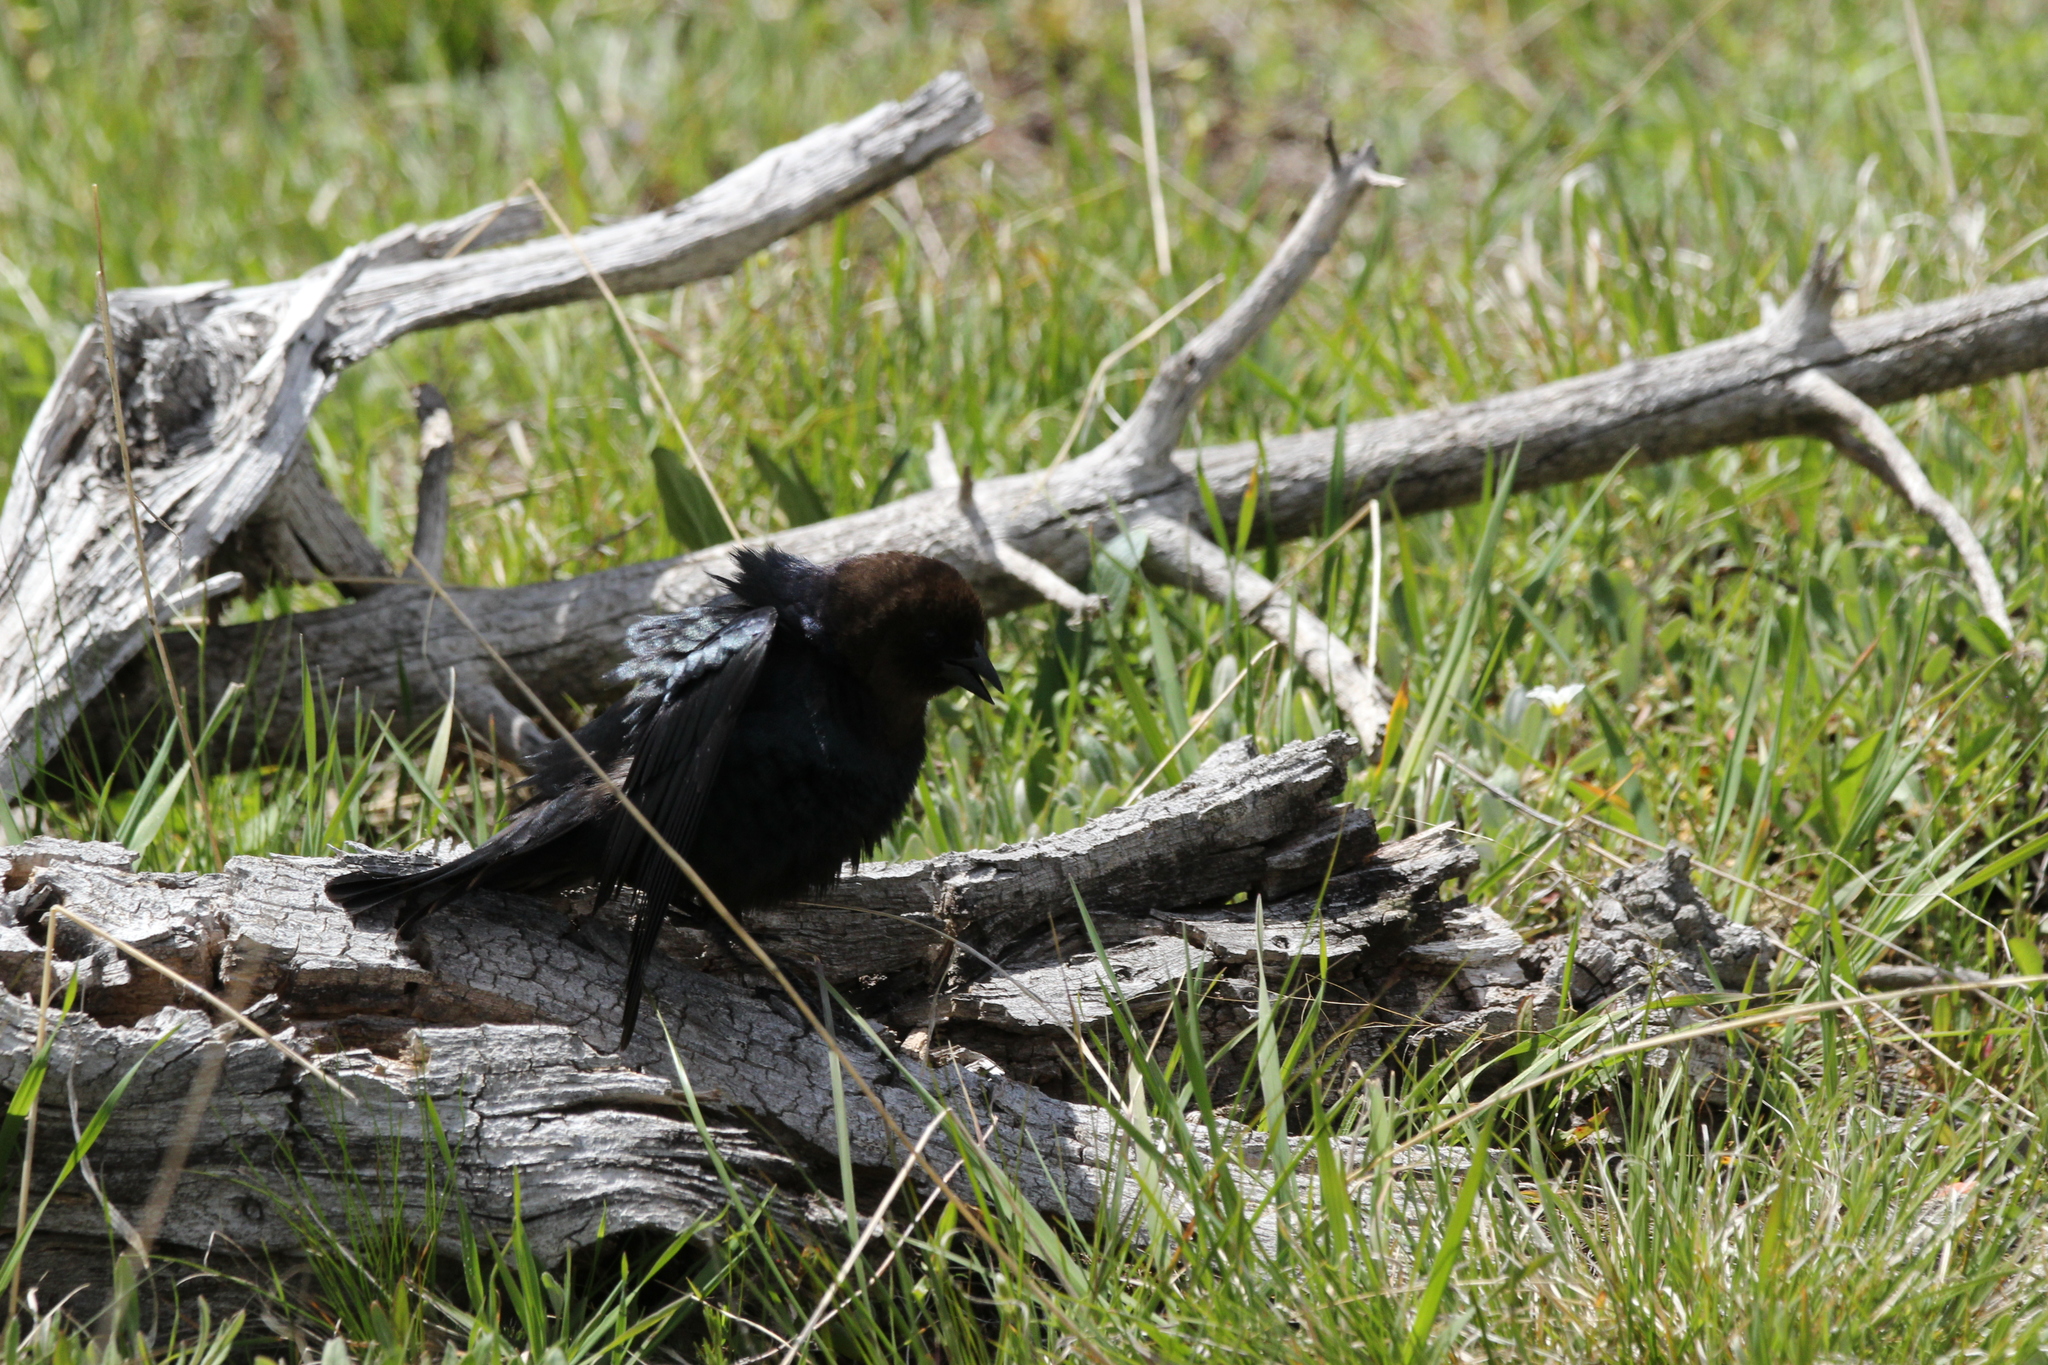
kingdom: Animalia
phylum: Chordata
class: Aves
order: Passeriformes
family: Icteridae
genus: Molothrus
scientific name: Molothrus ater
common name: Brown-headed cowbird
